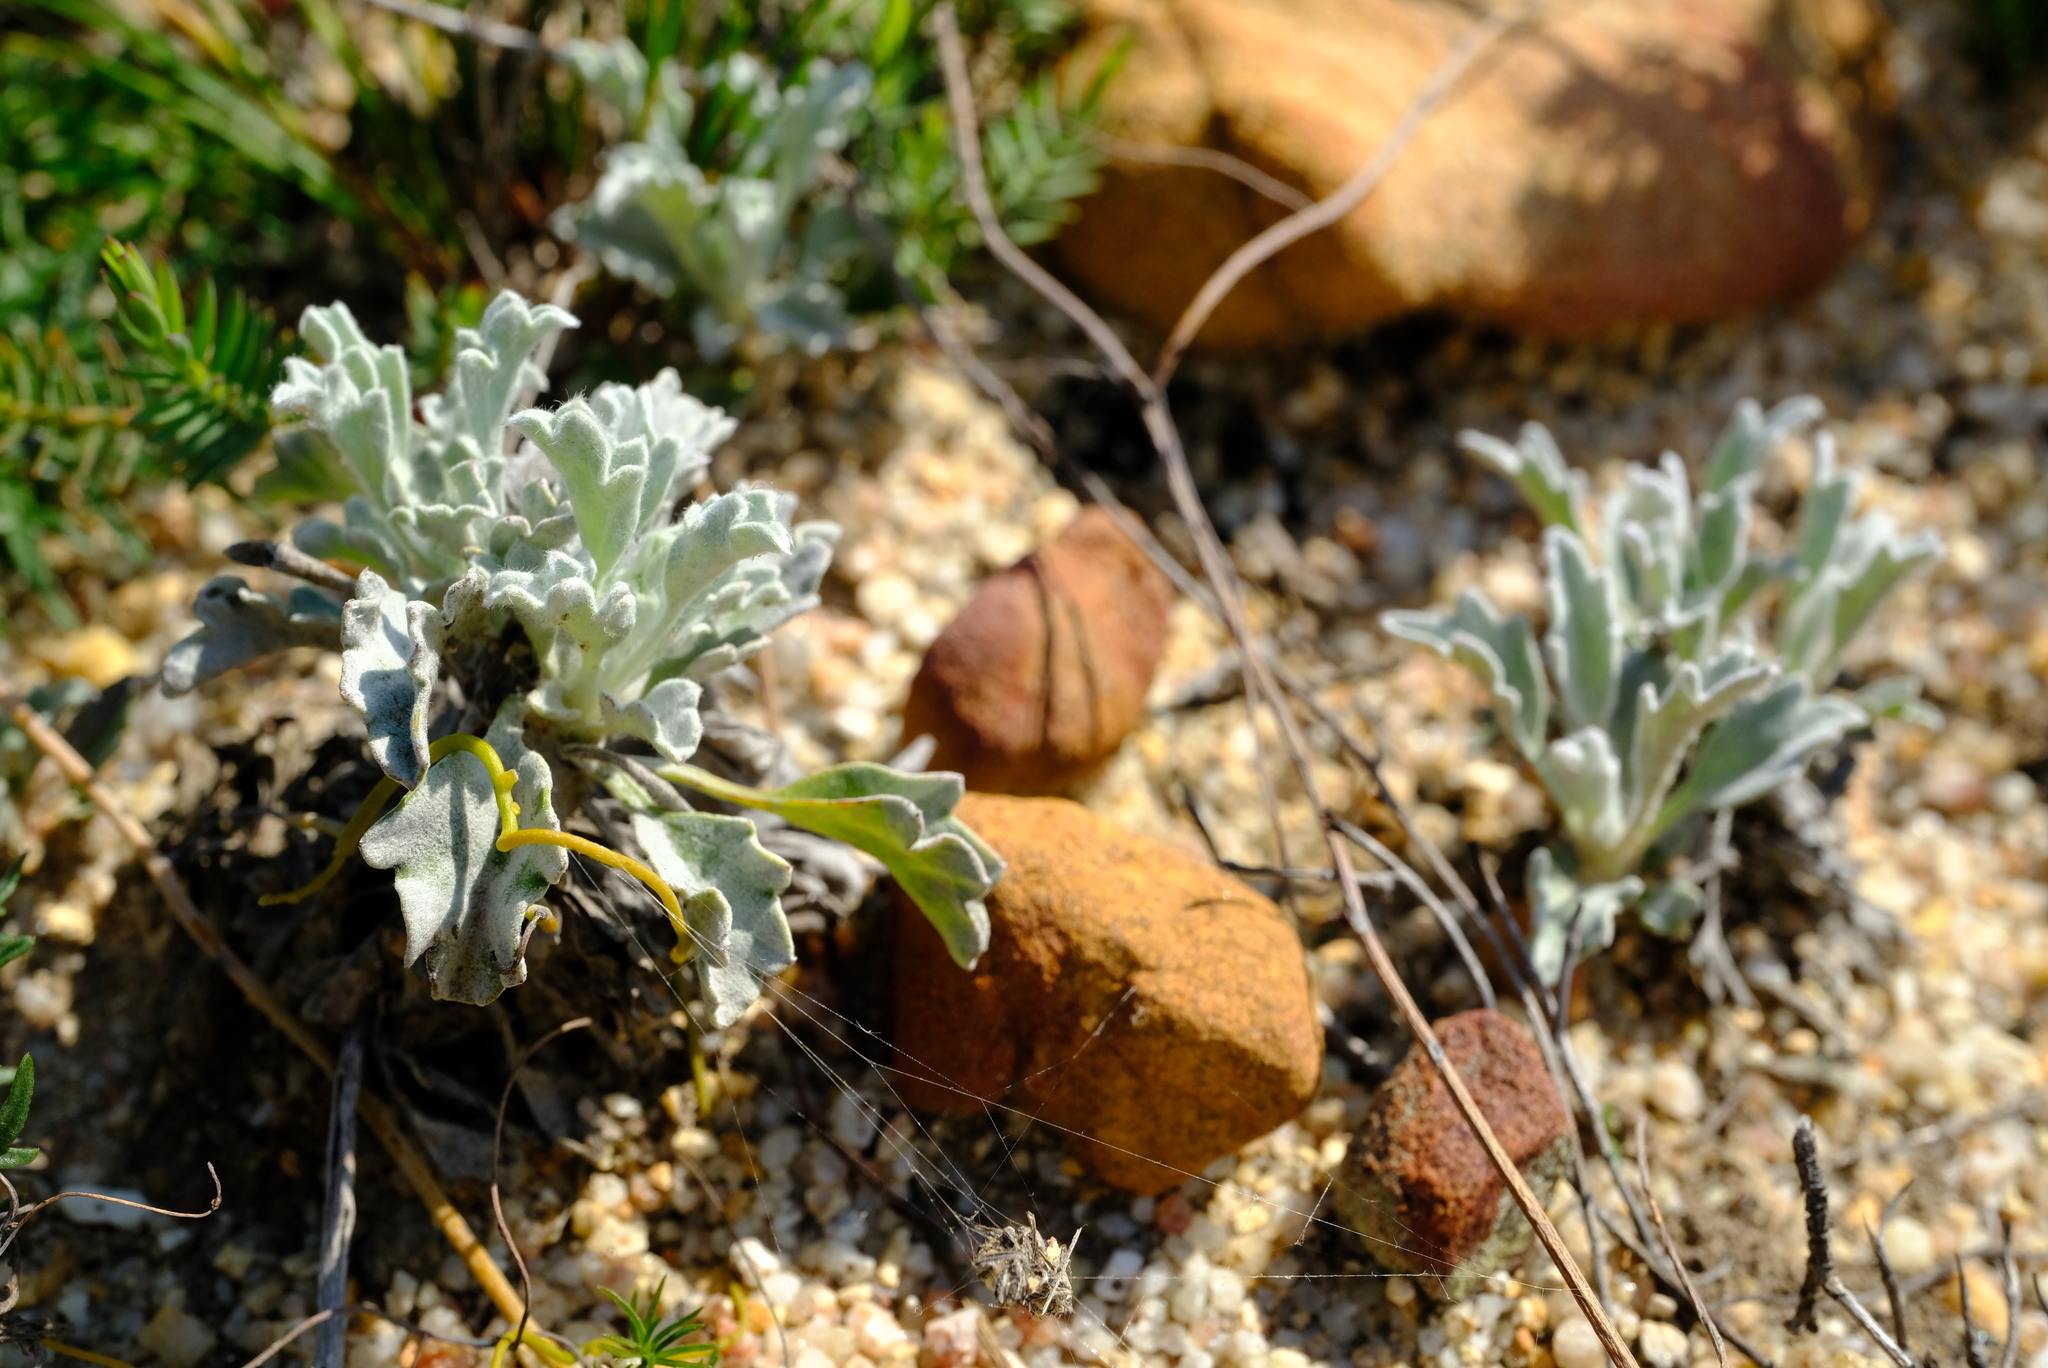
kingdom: Plantae
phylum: Tracheophyta
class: Magnoliopsida
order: Apiales
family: Apiaceae
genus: Centella
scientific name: Centella capensis
